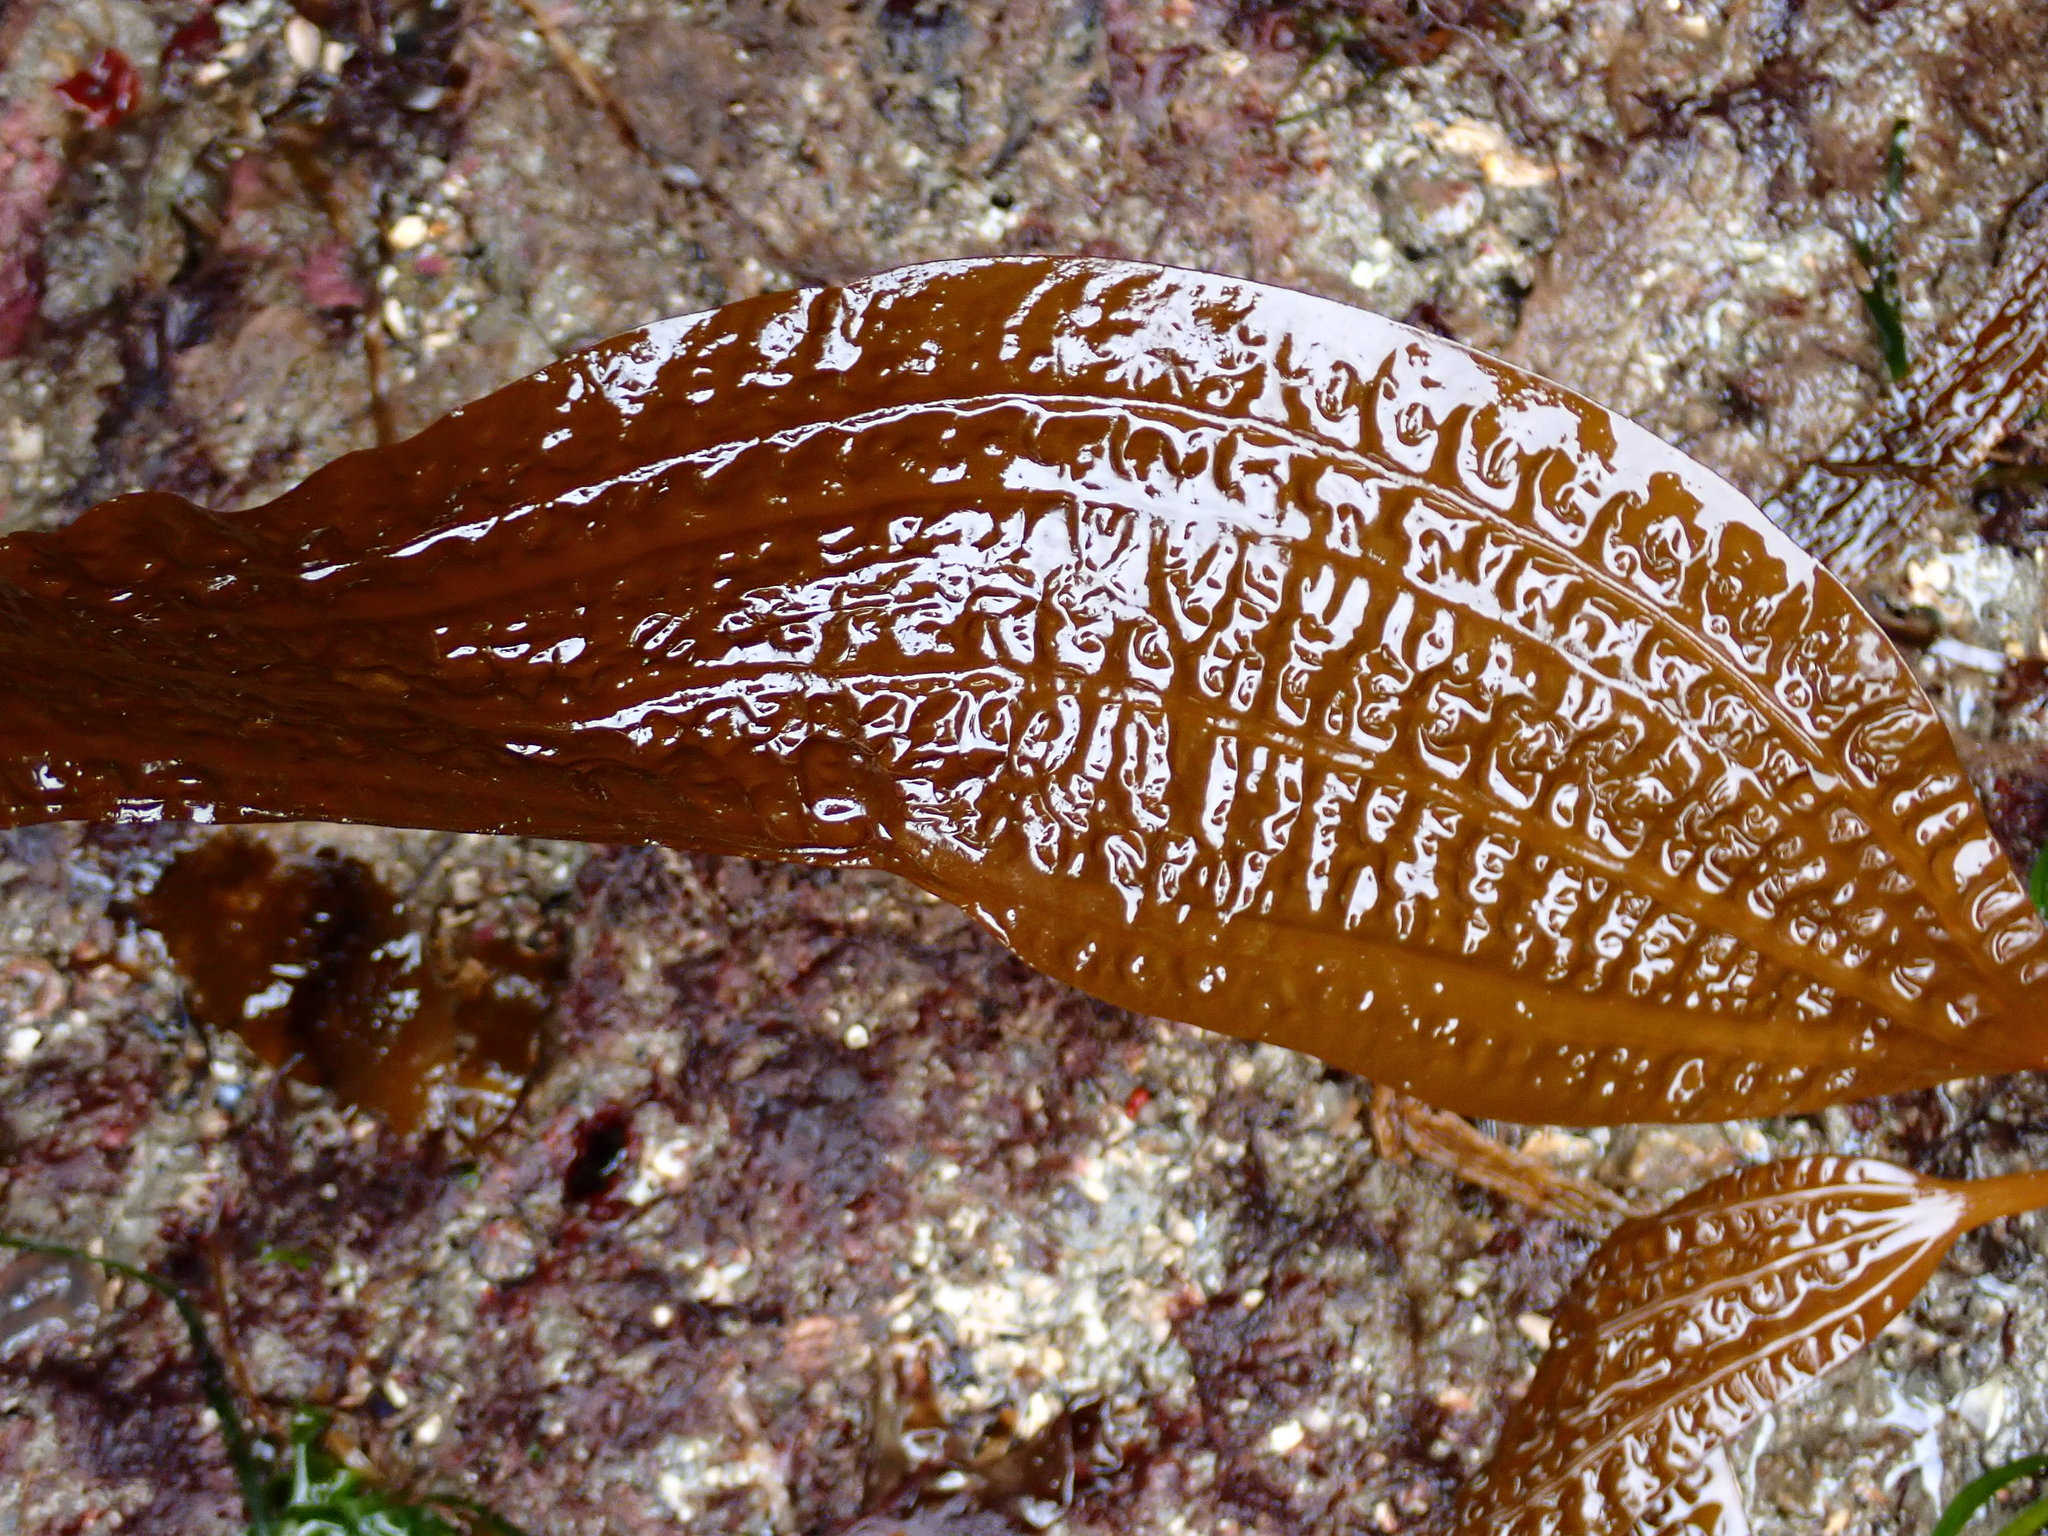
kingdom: Chromista
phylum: Ochrophyta
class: Phaeophyceae
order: Laminariales
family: Costariaceae
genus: Costaria
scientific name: Costaria costata
